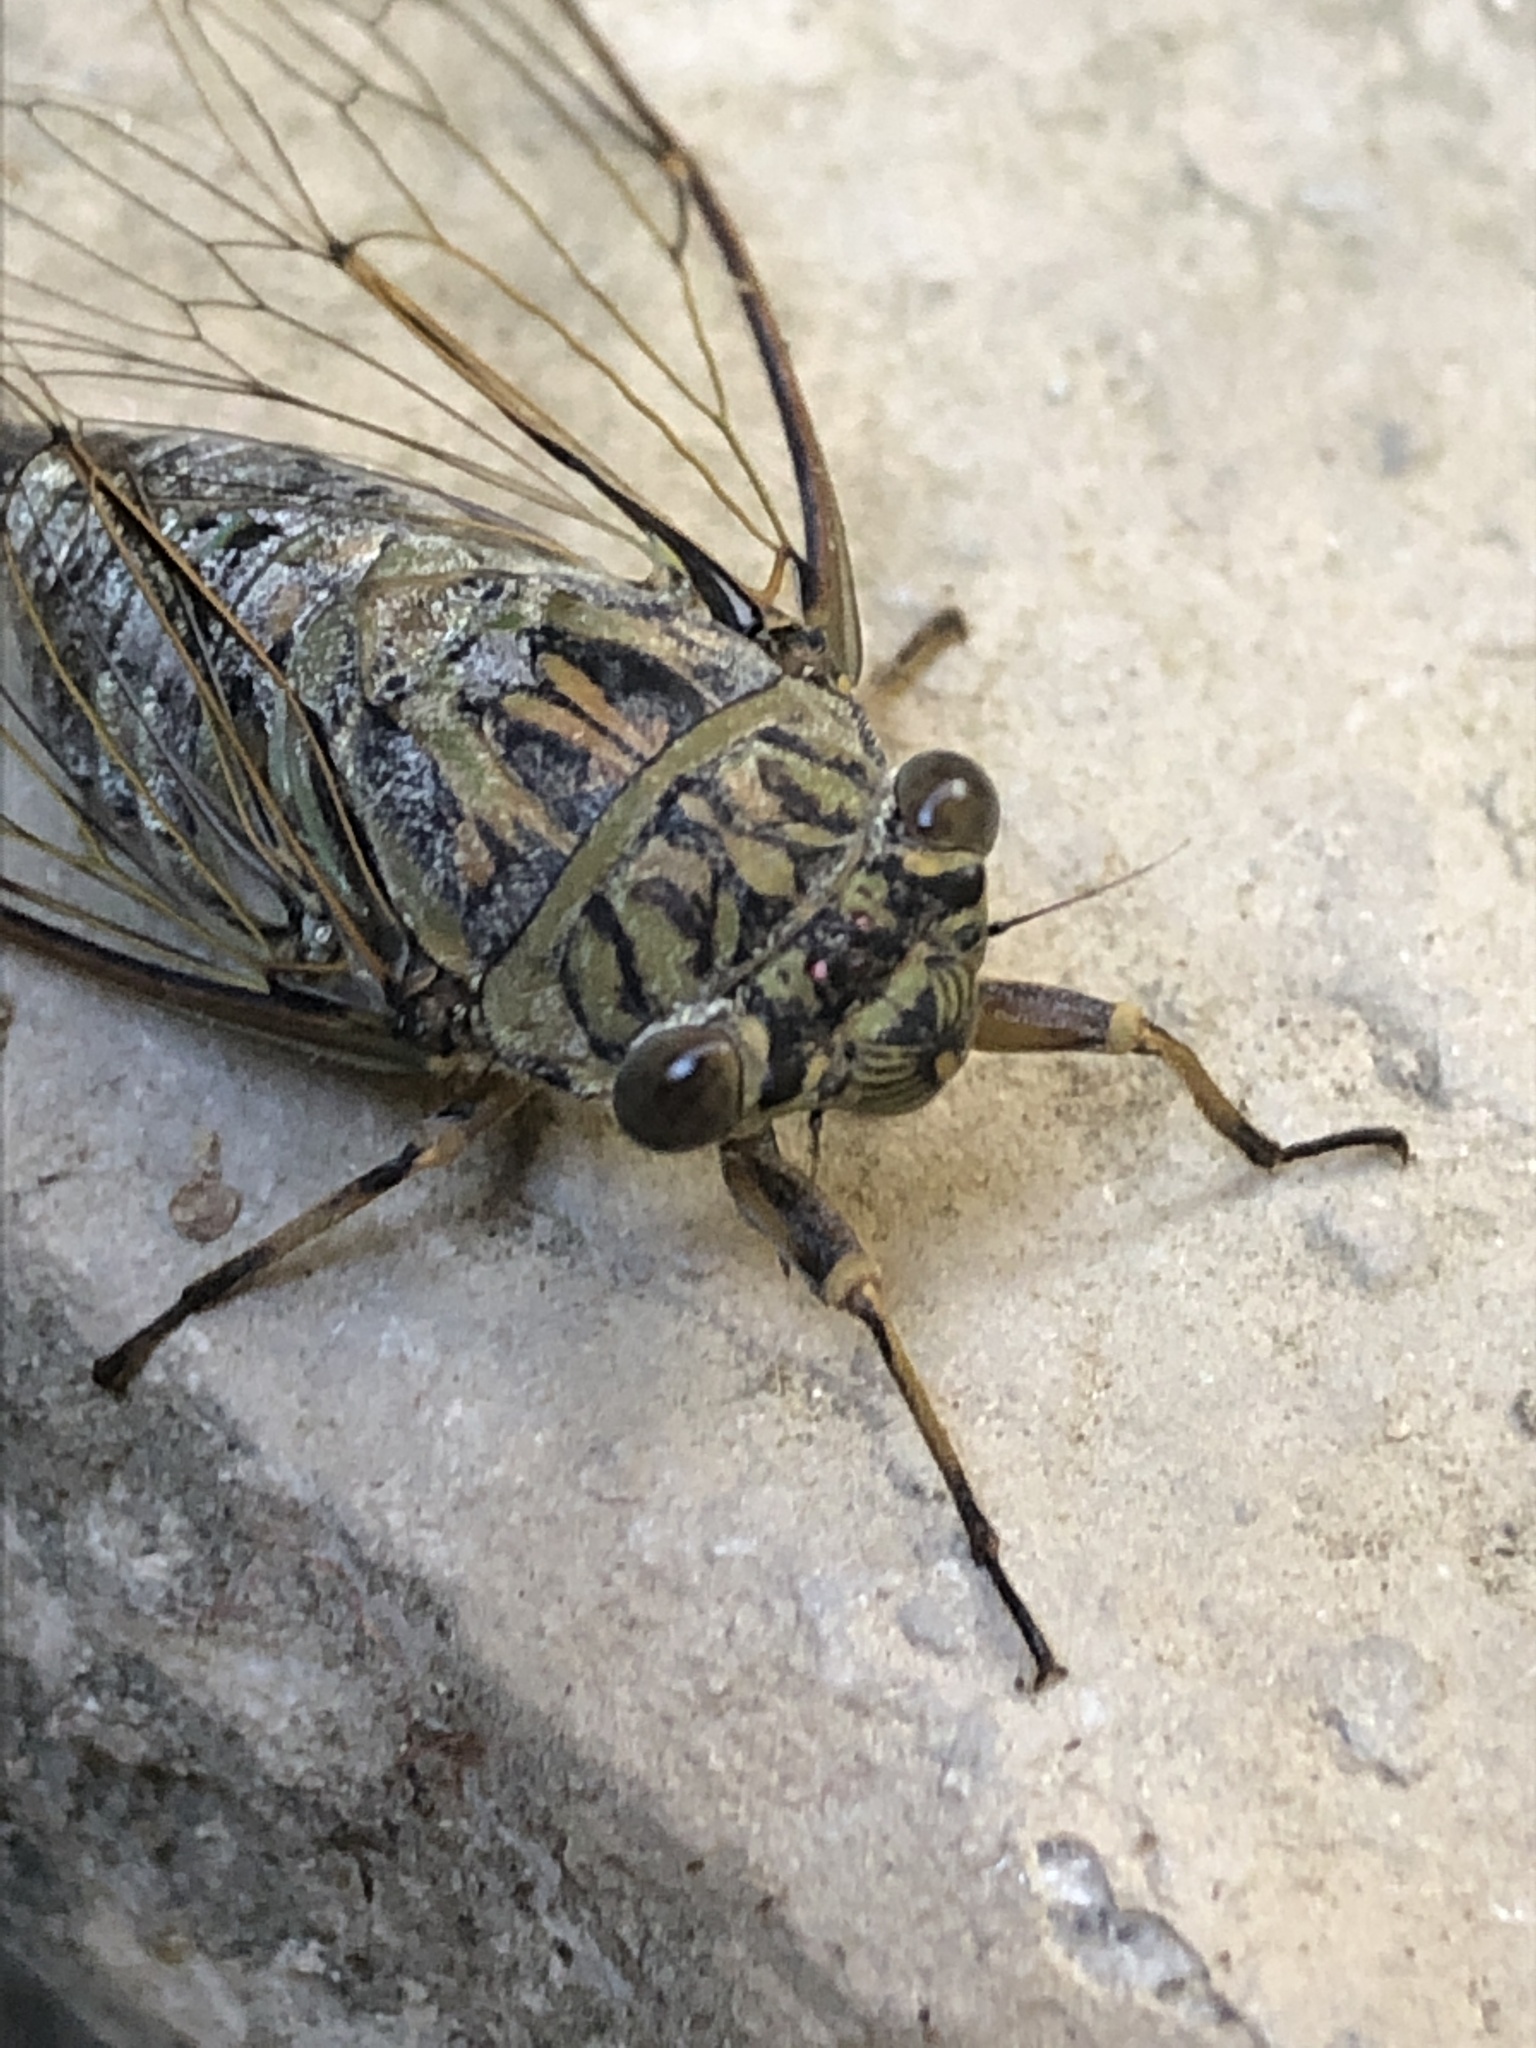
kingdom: Animalia
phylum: Arthropoda
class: Insecta
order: Hemiptera
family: Cicadidae
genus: Meimuna
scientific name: Meimuna opalifera
